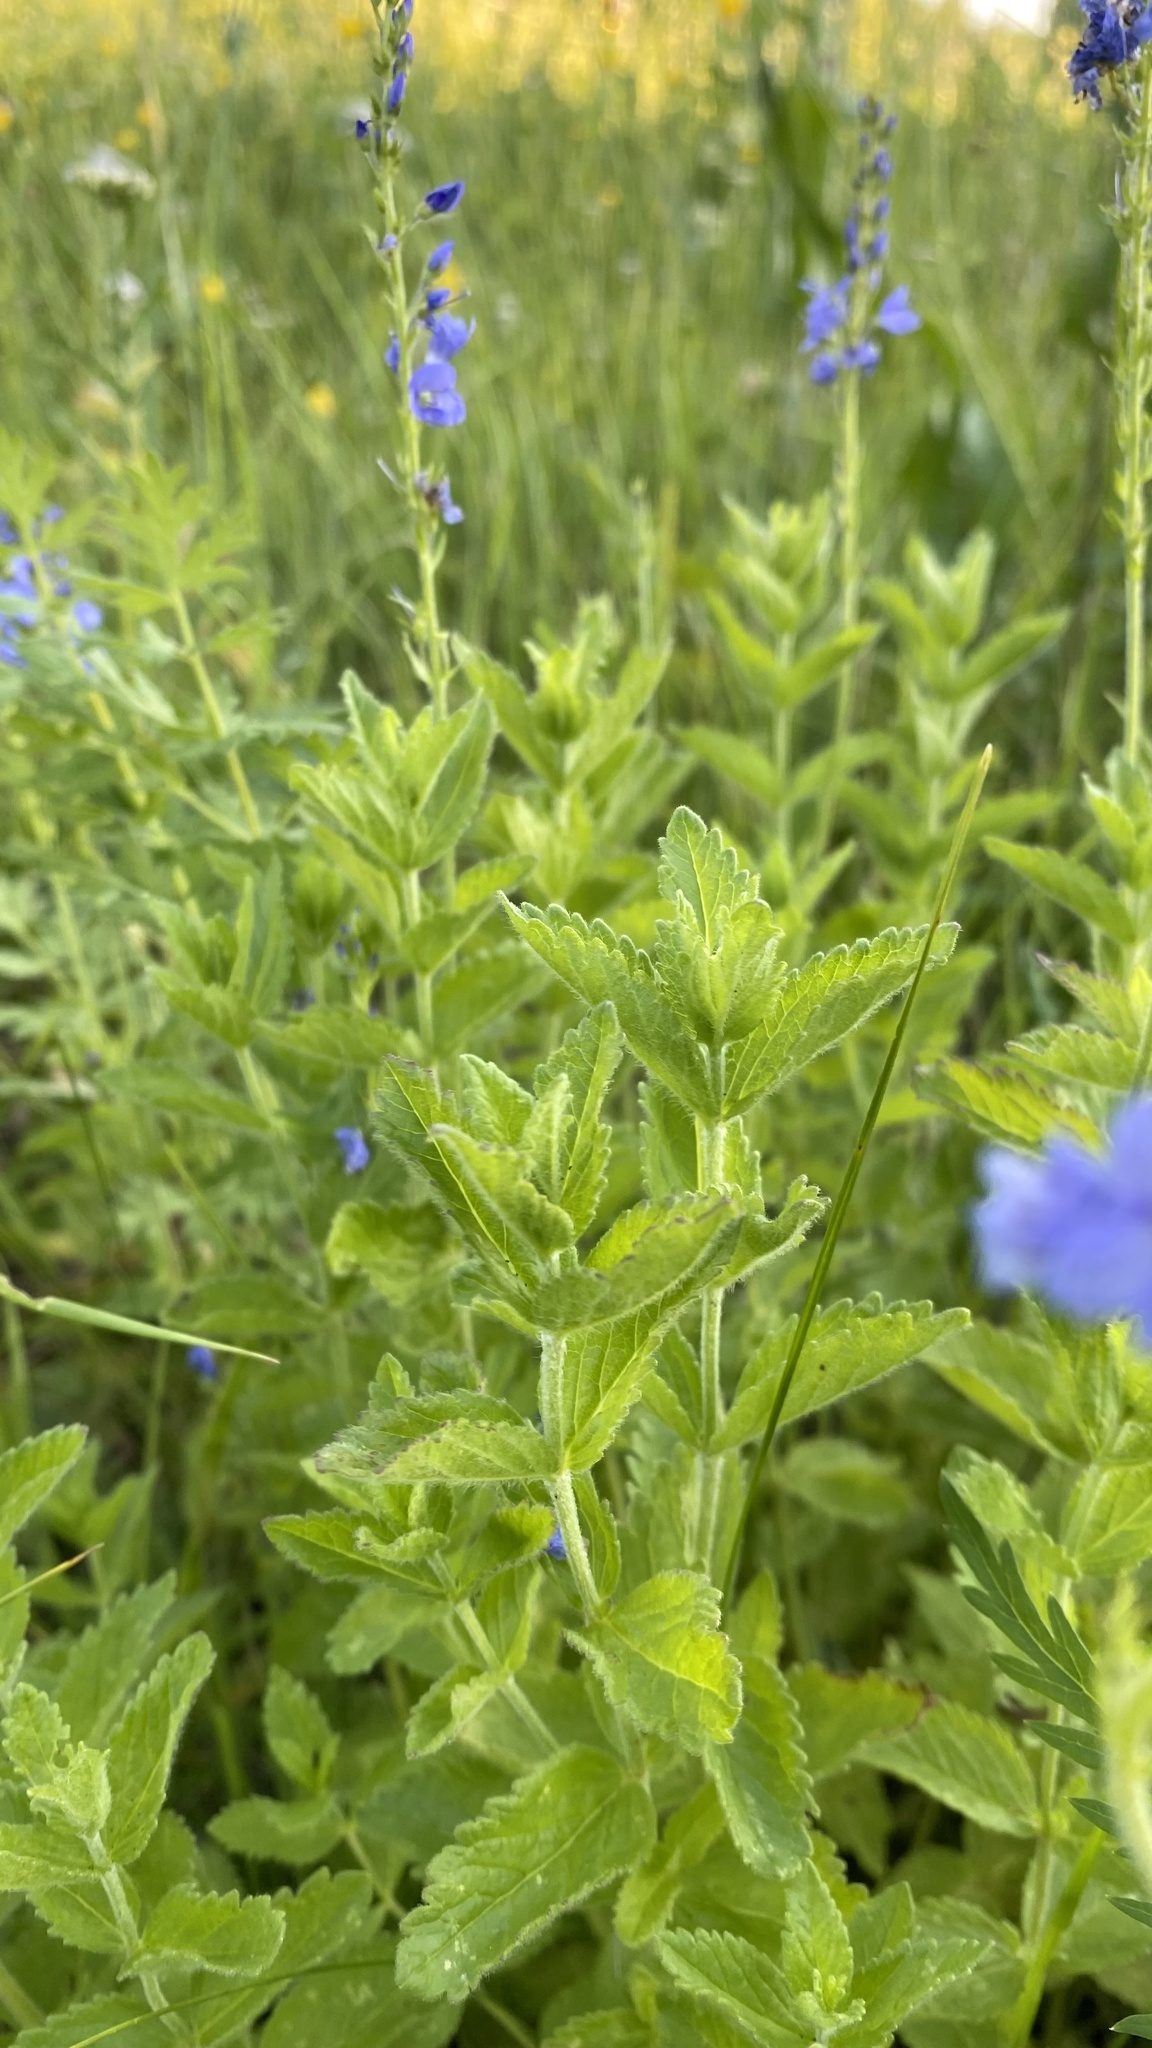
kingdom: Plantae
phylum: Tracheophyta
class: Magnoliopsida
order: Lamiales
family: Plantaginaceae
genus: Veronica
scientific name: Veronica teucrium
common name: Large speedwell
